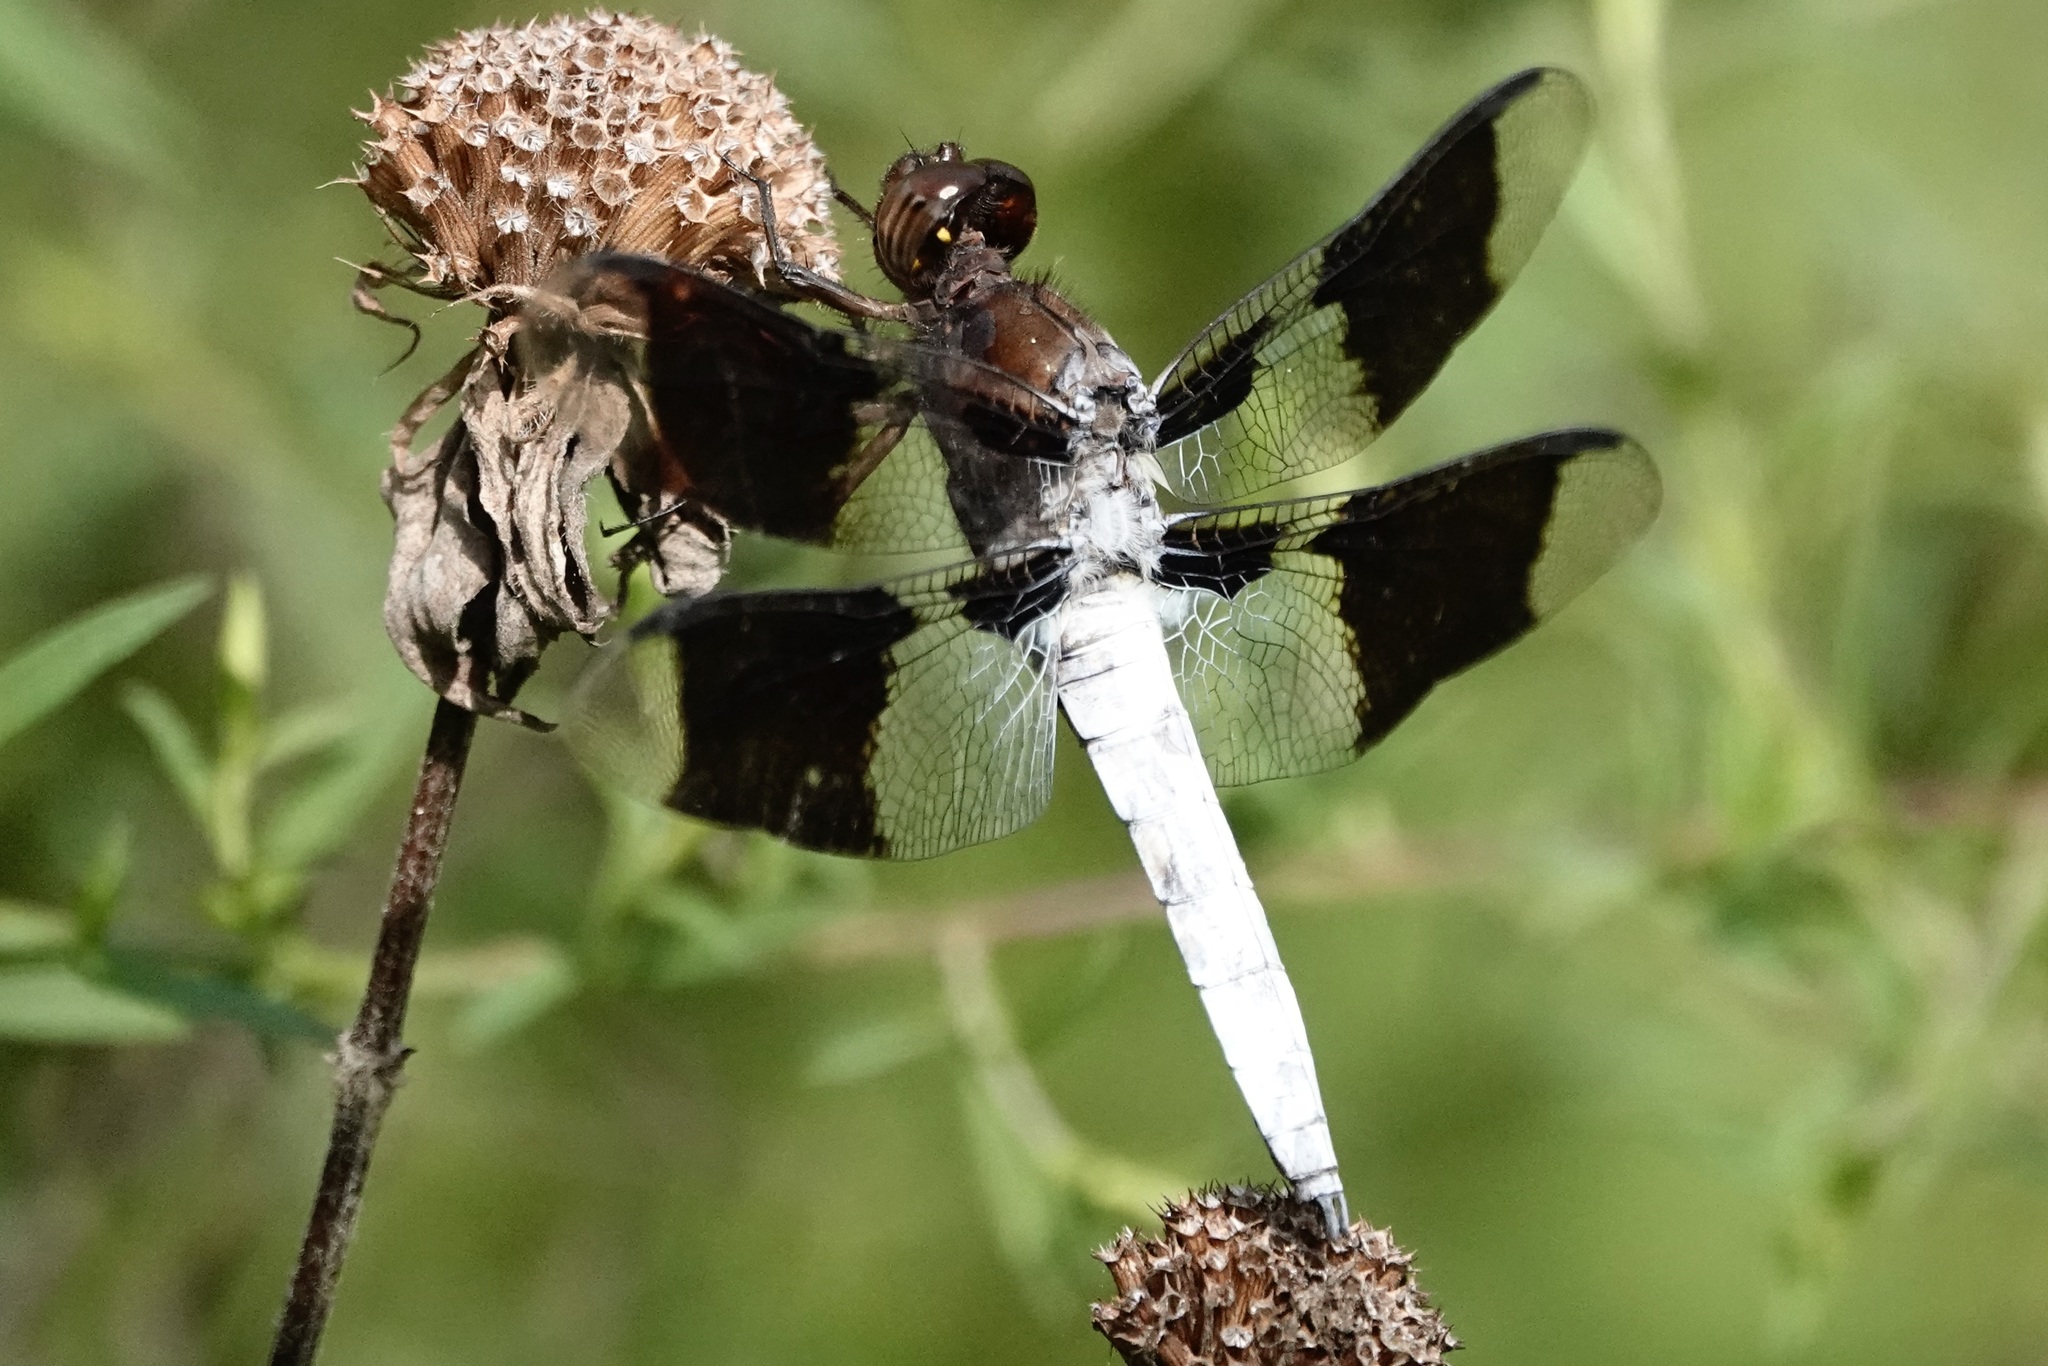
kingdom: Animalia
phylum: Arthropoda
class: Insecta
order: Odonata
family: Libellulidae
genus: Plathemis
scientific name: Plathemis lydia
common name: Common whitetail
